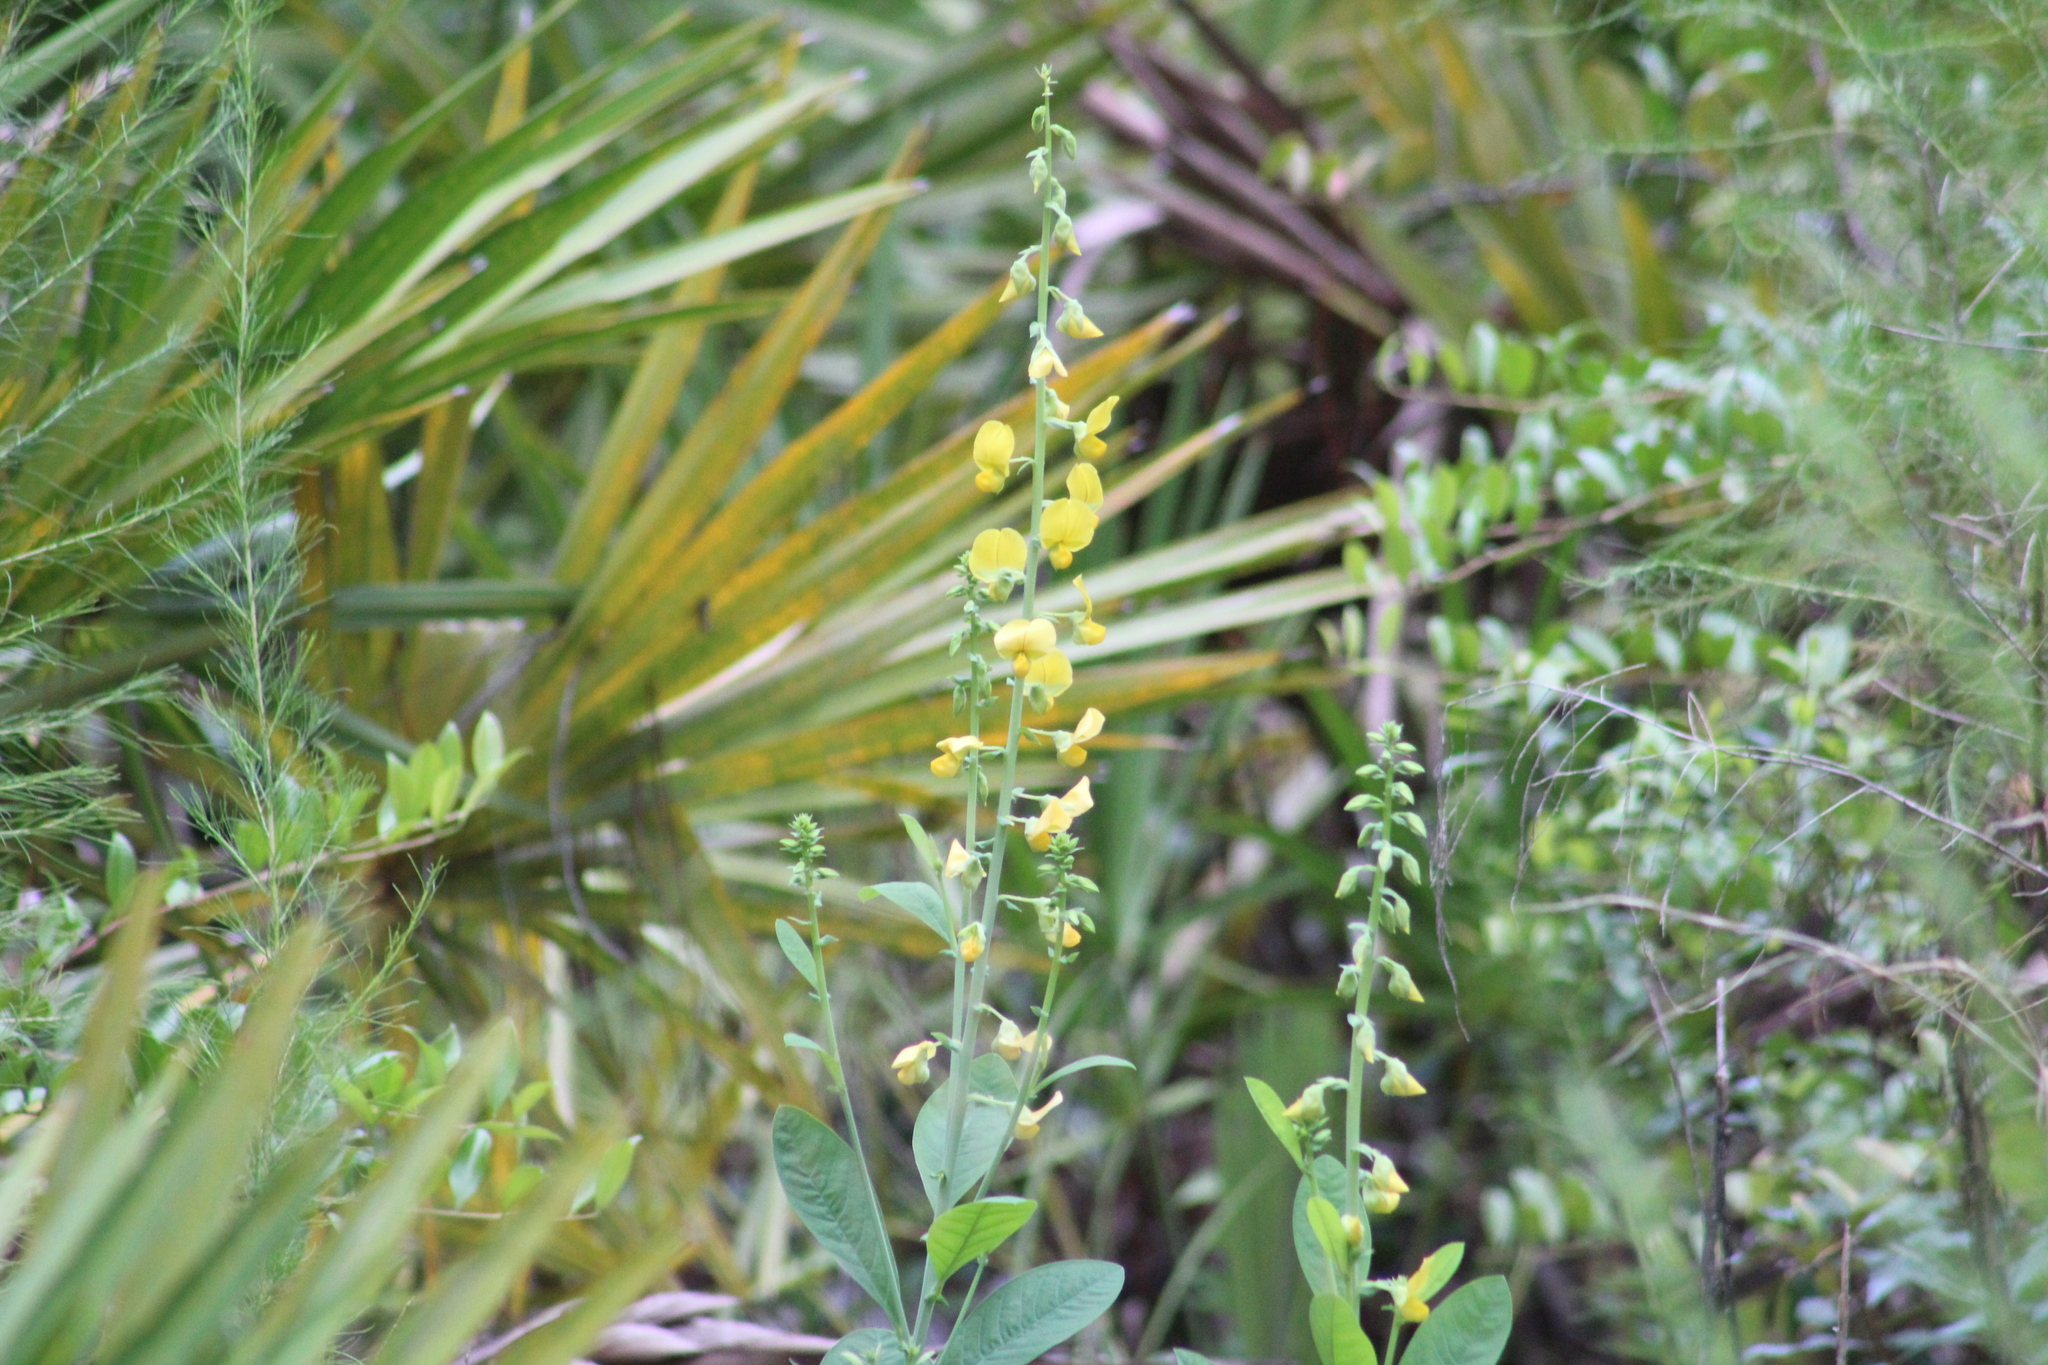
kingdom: Plantae
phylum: Tracheophyta
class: Magnoliopsida
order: Fabales
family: Fabaceae
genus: Crotalaria
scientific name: Crotalaria spectabilis
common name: Showy rattlebox
